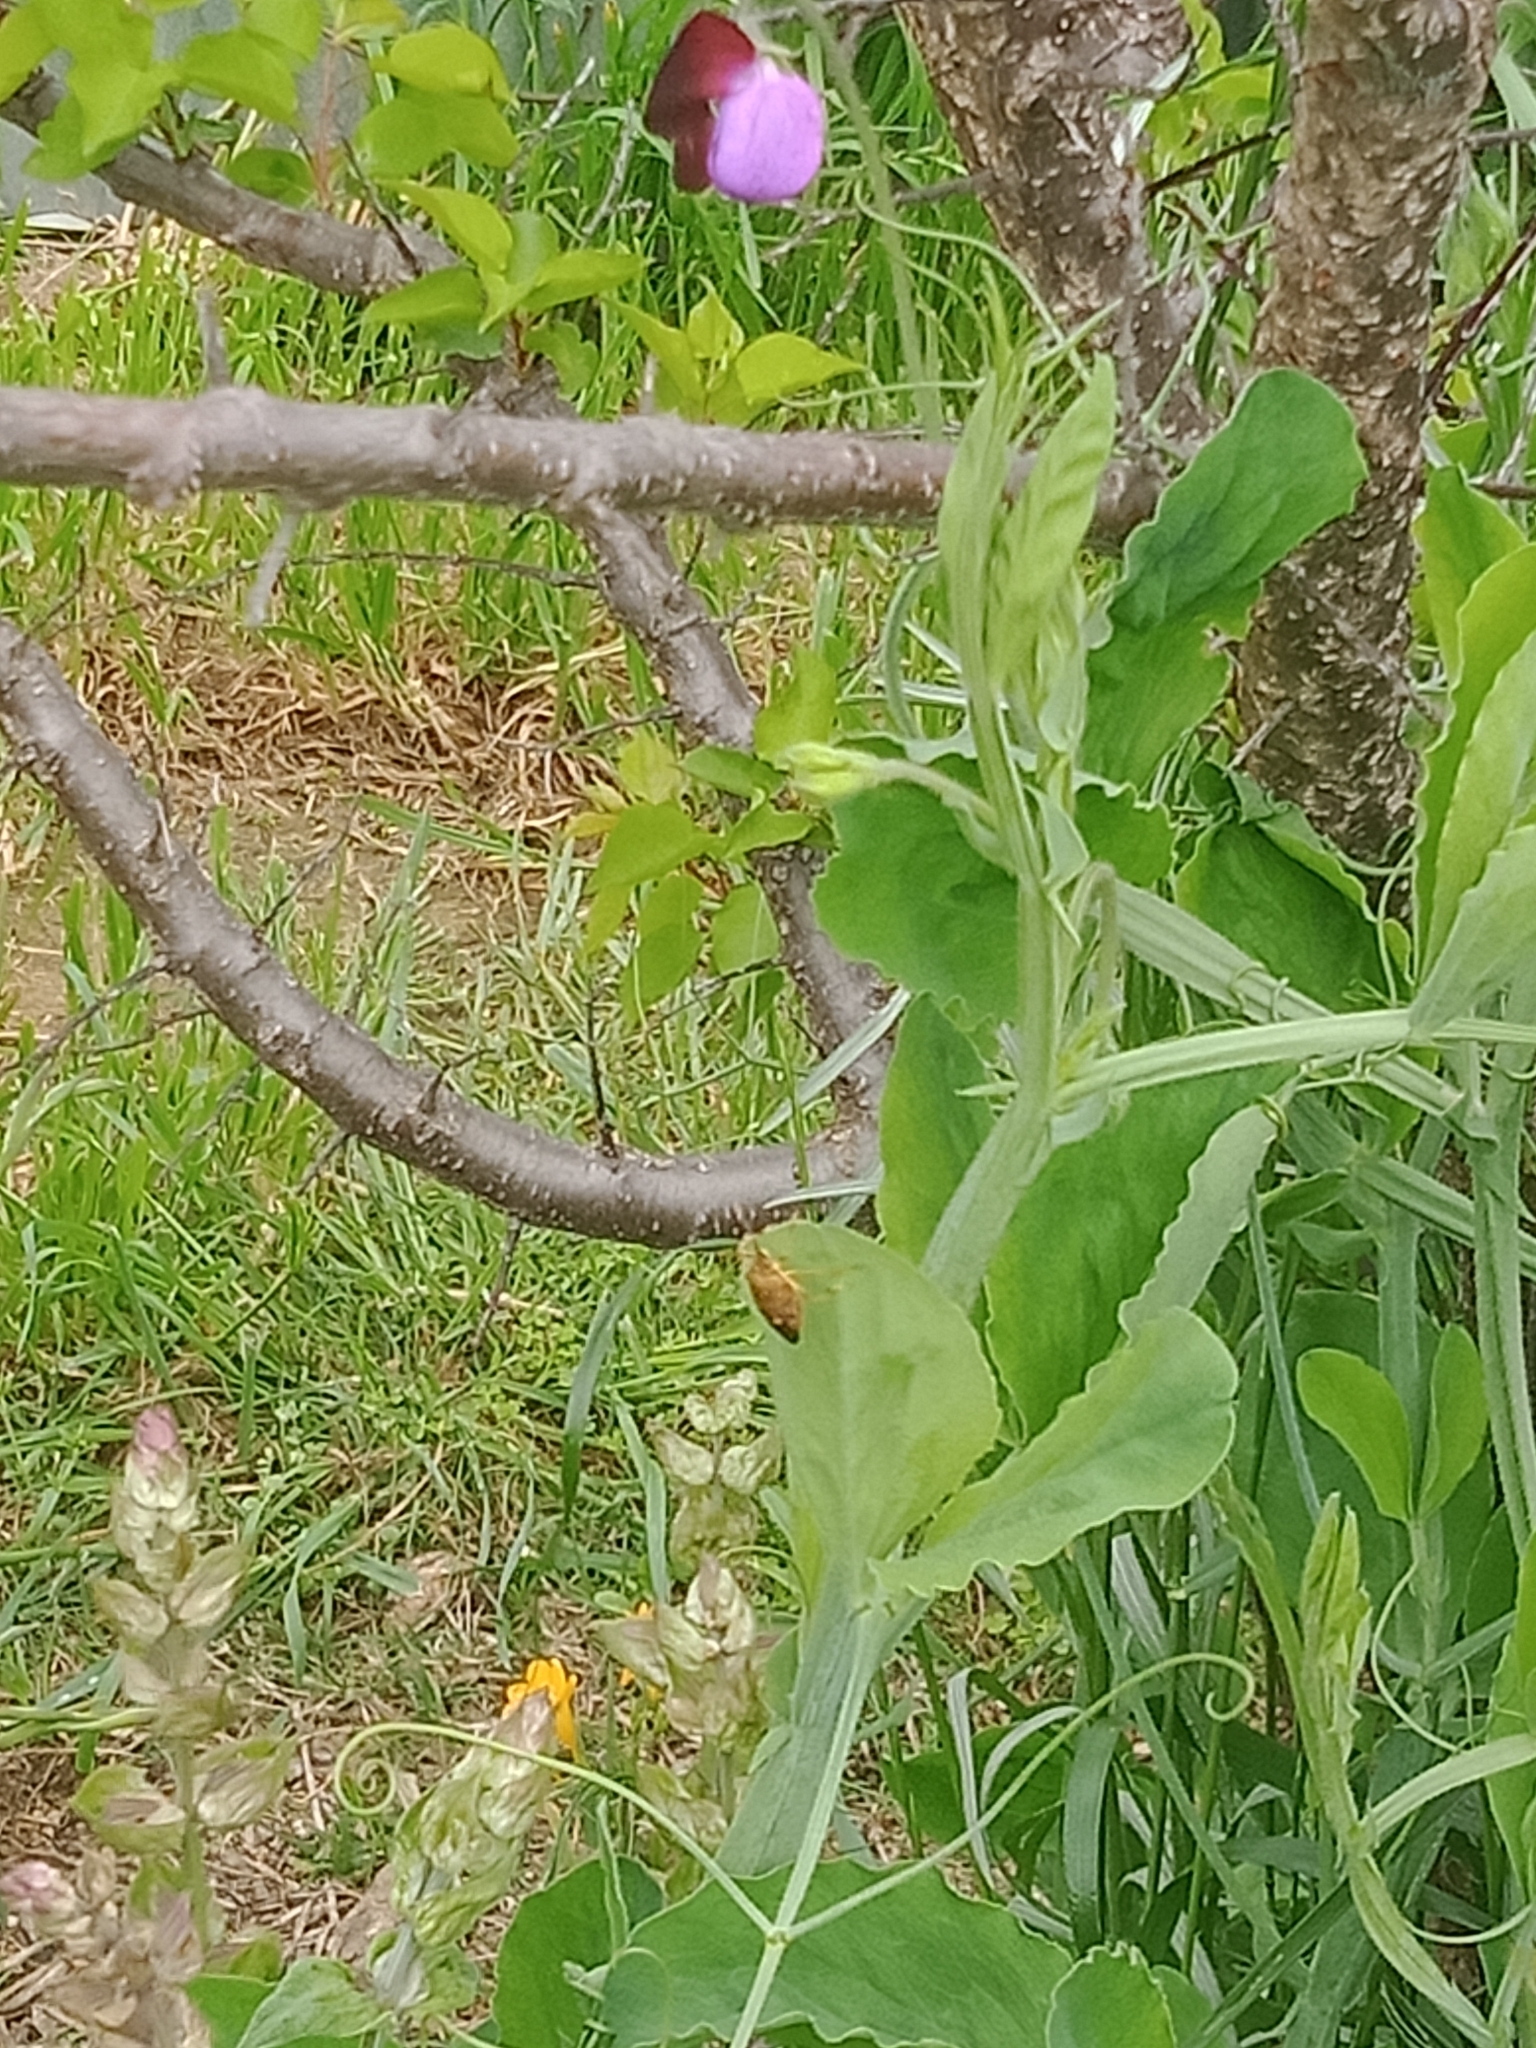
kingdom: Animalia
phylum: Arthropoda
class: Insecta
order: Hemiptera
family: Pentatomidae
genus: Poecilometis
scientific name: Poecilometis
